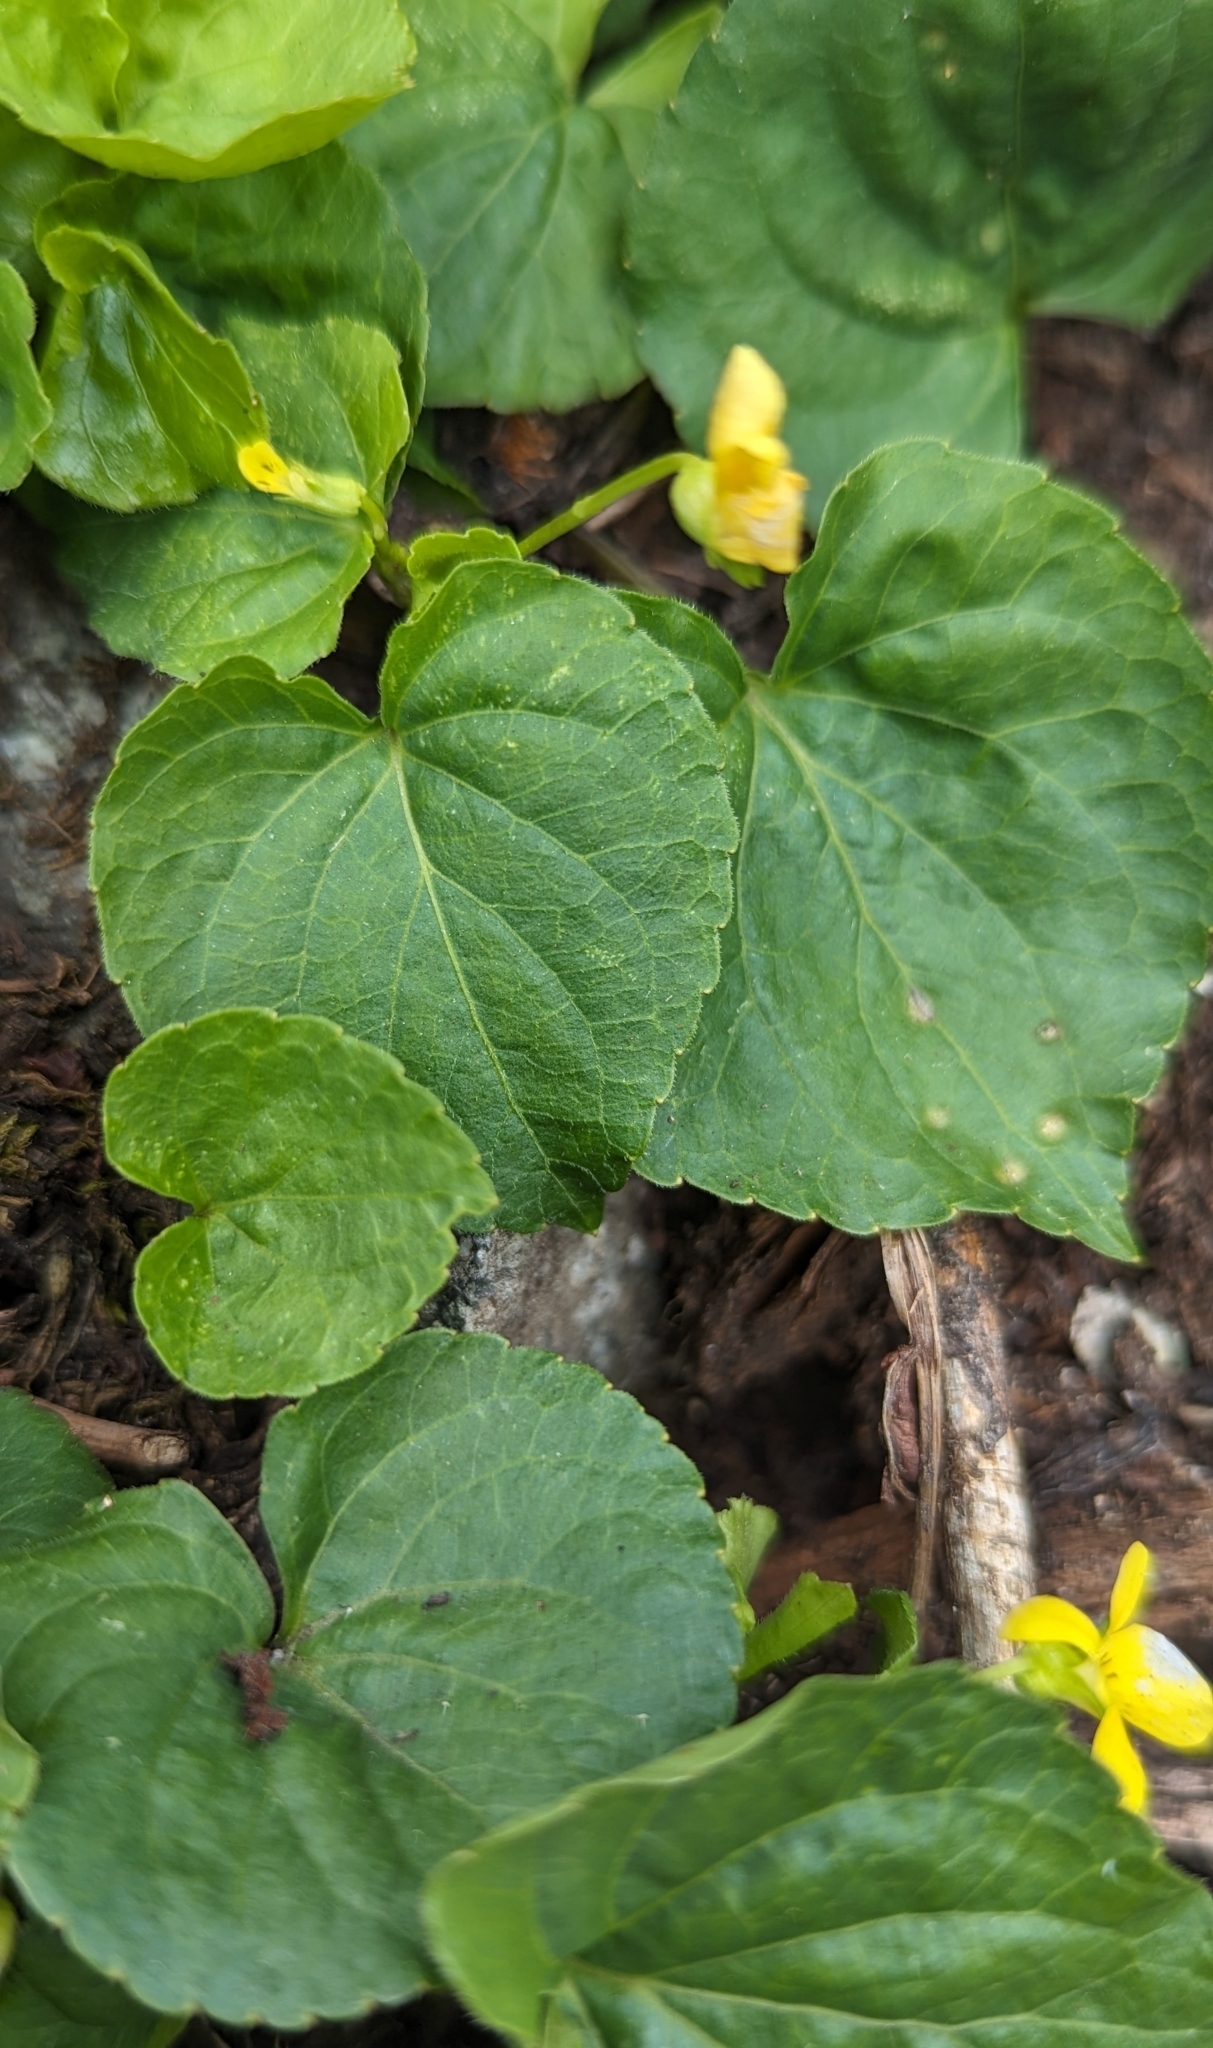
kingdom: Plantae
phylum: Tracheophyta
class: Magnoliopsida
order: Malpighiales
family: Violaceae
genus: Viola
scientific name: Viola glabella
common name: Stream violet
